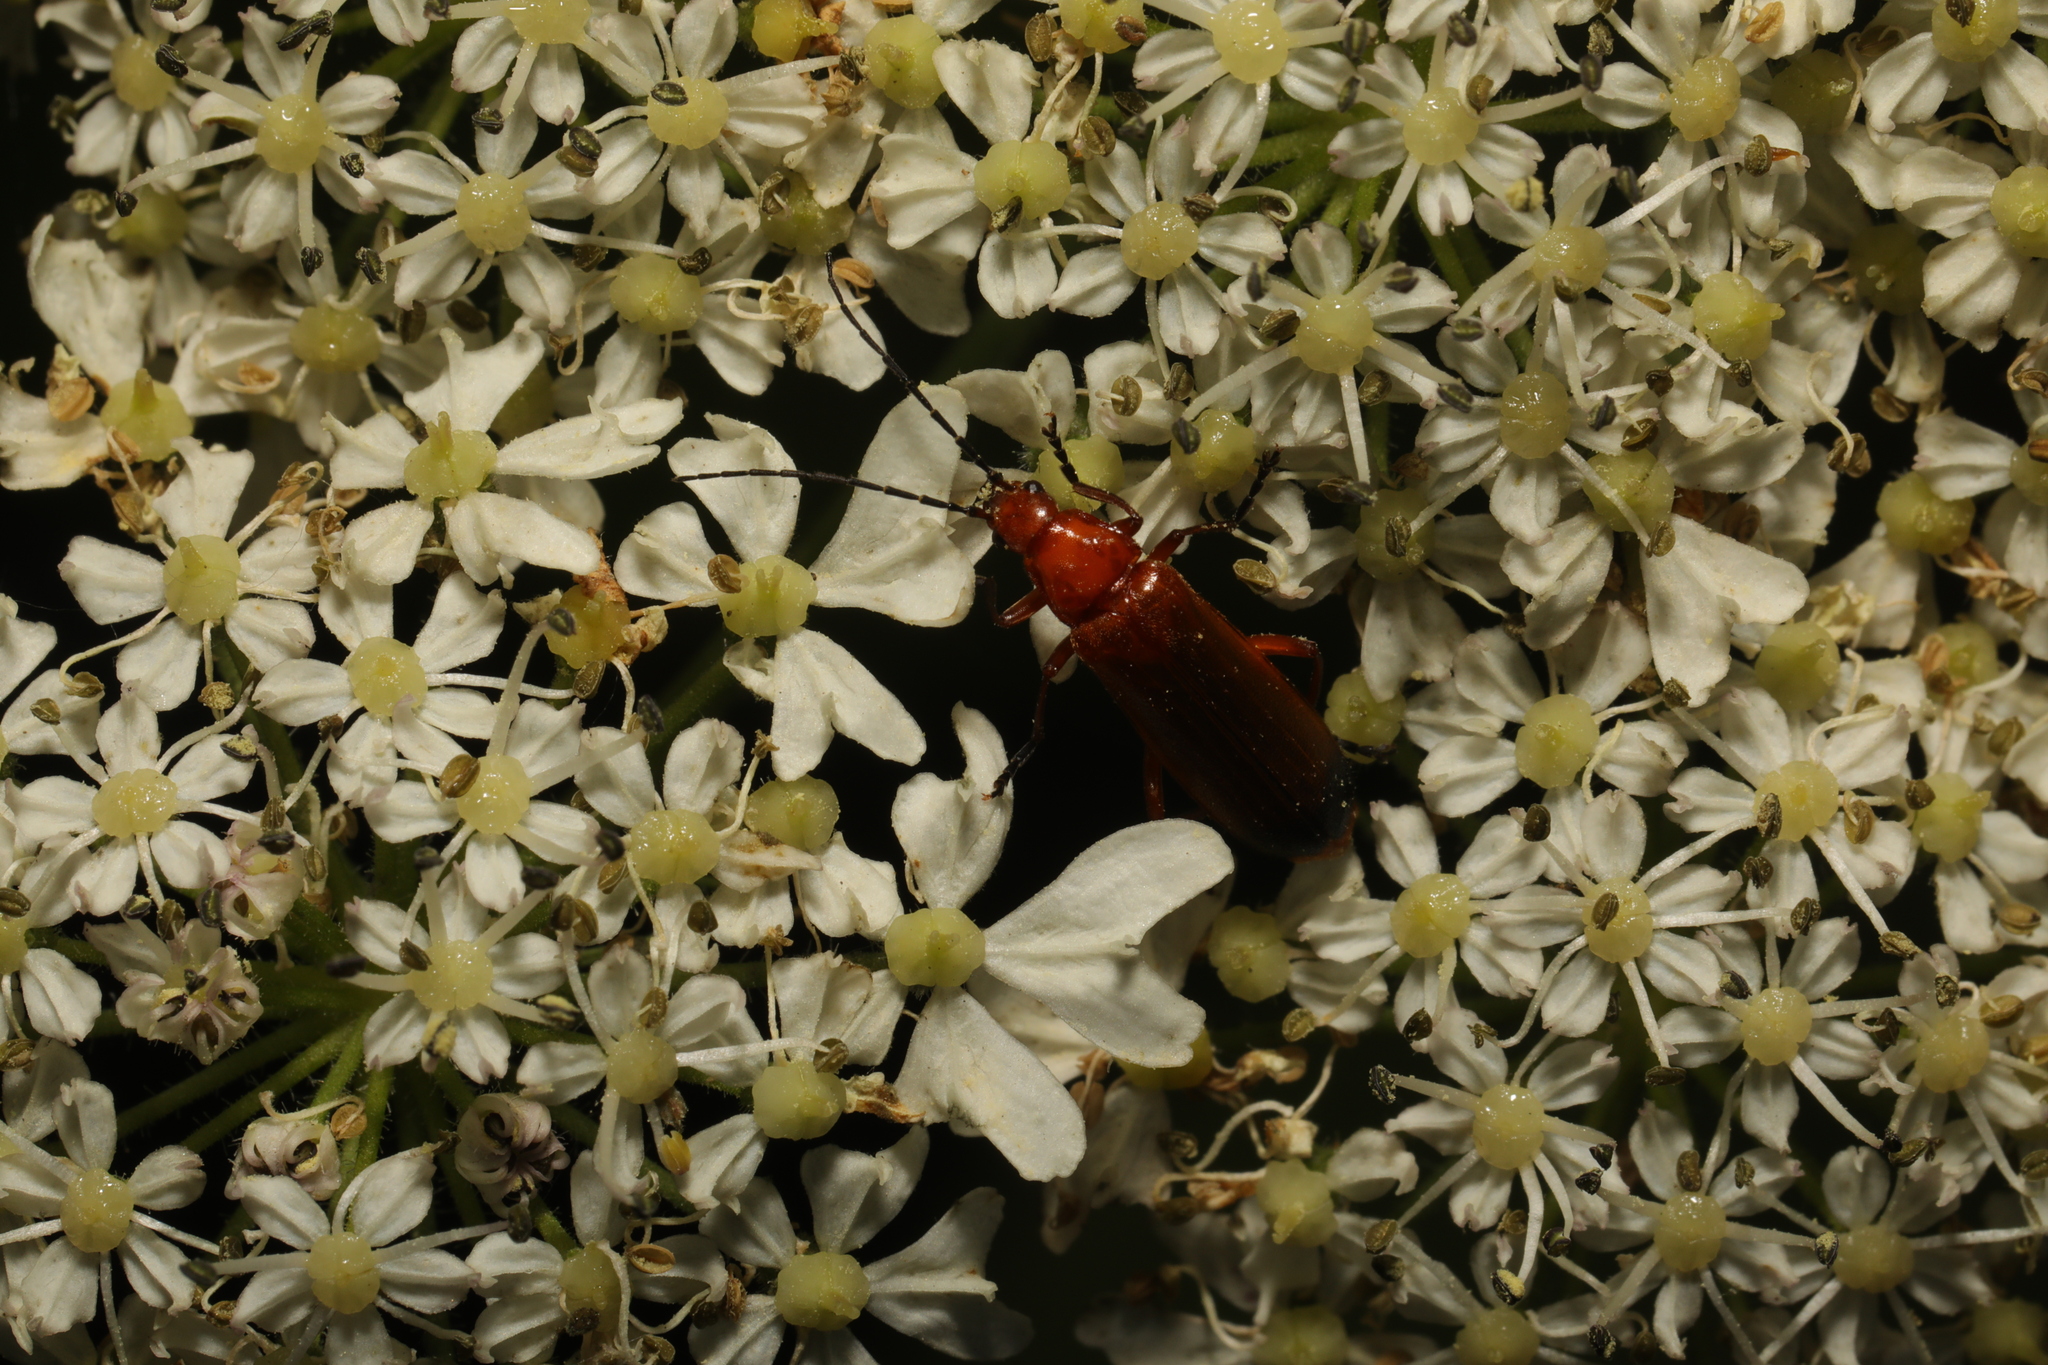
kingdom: Animalia
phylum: Arthropoda
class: Insecta
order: Coleoptera
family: Cantharidae
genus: Rhagonycha
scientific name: Rhagonycha fulva
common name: Common red soldier beetle
